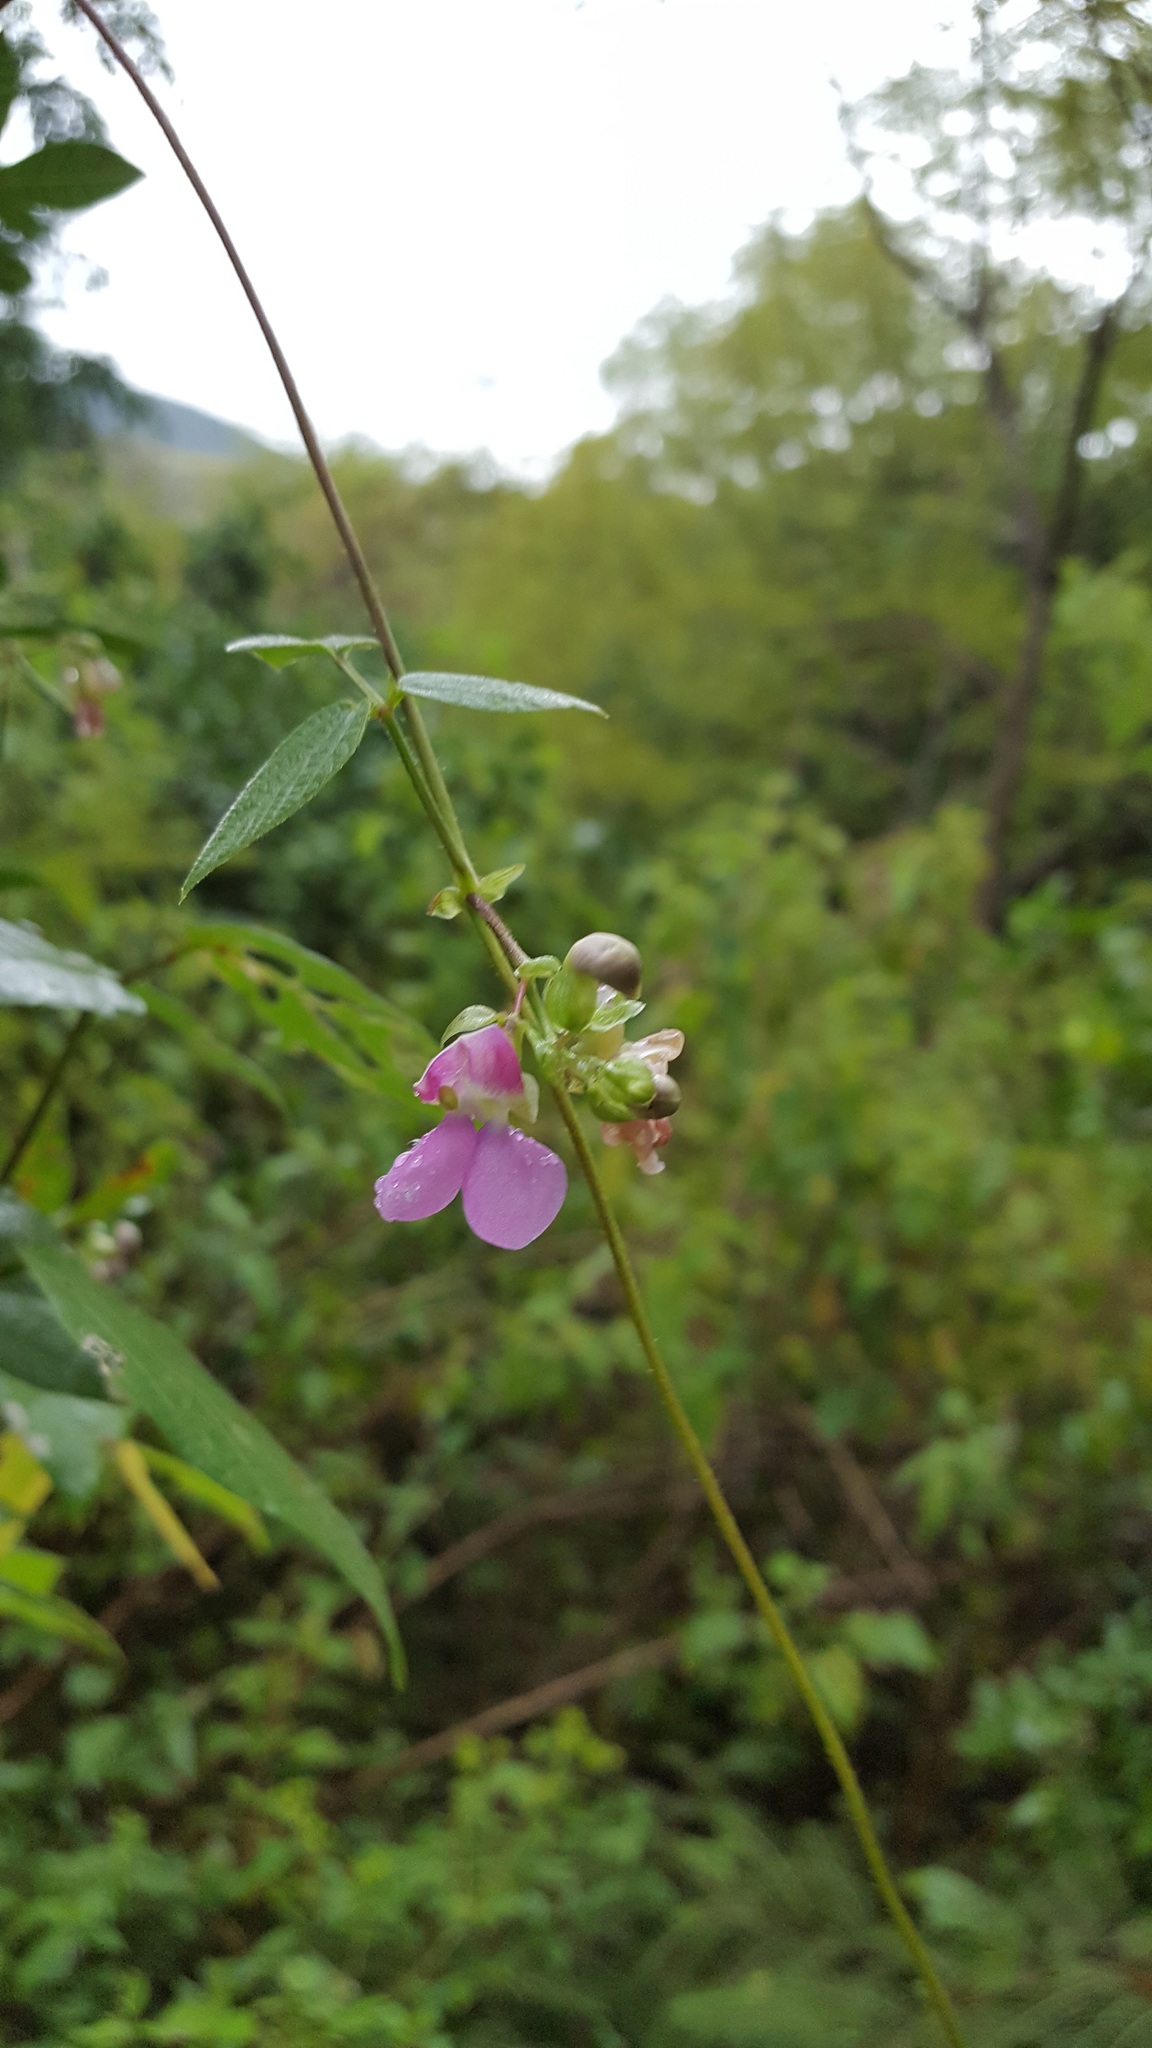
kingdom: Plantae
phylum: Tracheophyta
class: Magnoliopsida
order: Fabales
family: Fabaceae
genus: Phaseolus
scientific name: Phaseolus vulgaris
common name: Bean
